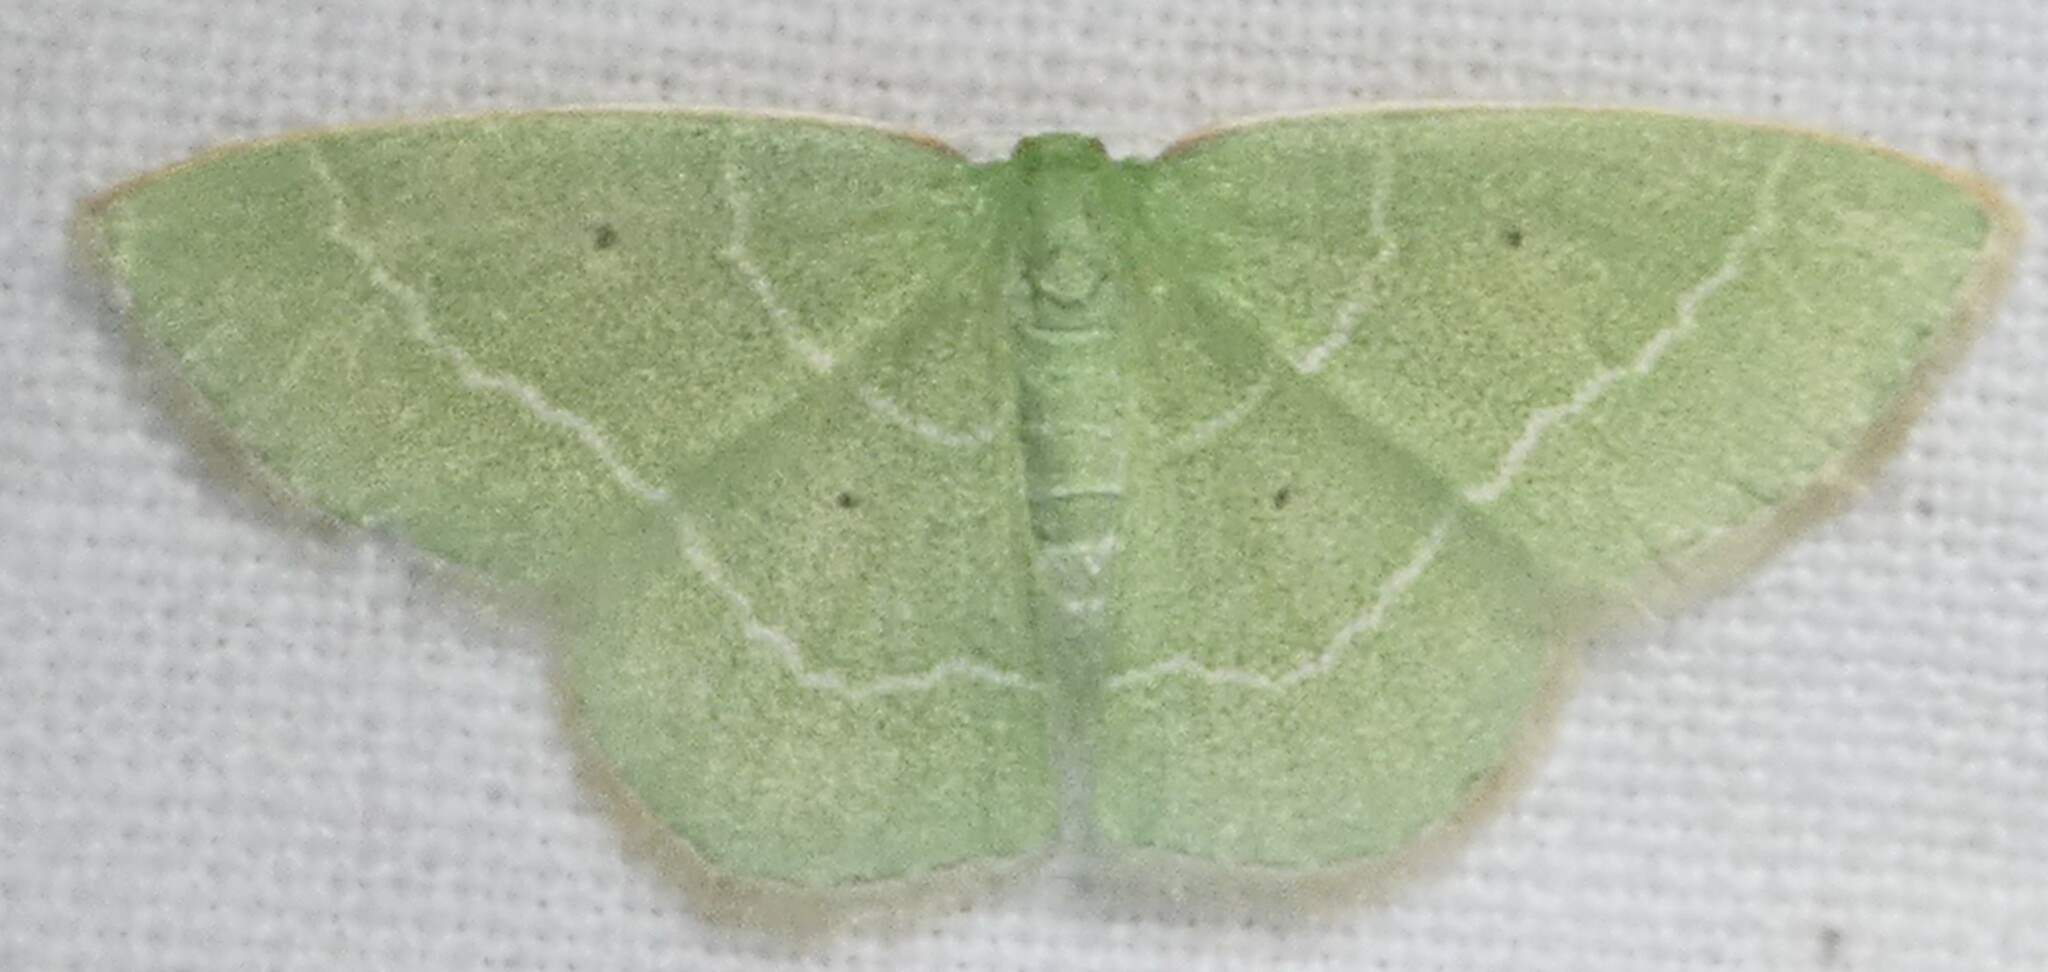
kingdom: Animalia
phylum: Arthropoda
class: Insecta
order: Lepidoptera
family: Geometridae
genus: Nemoria
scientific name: Nemoria elfa
